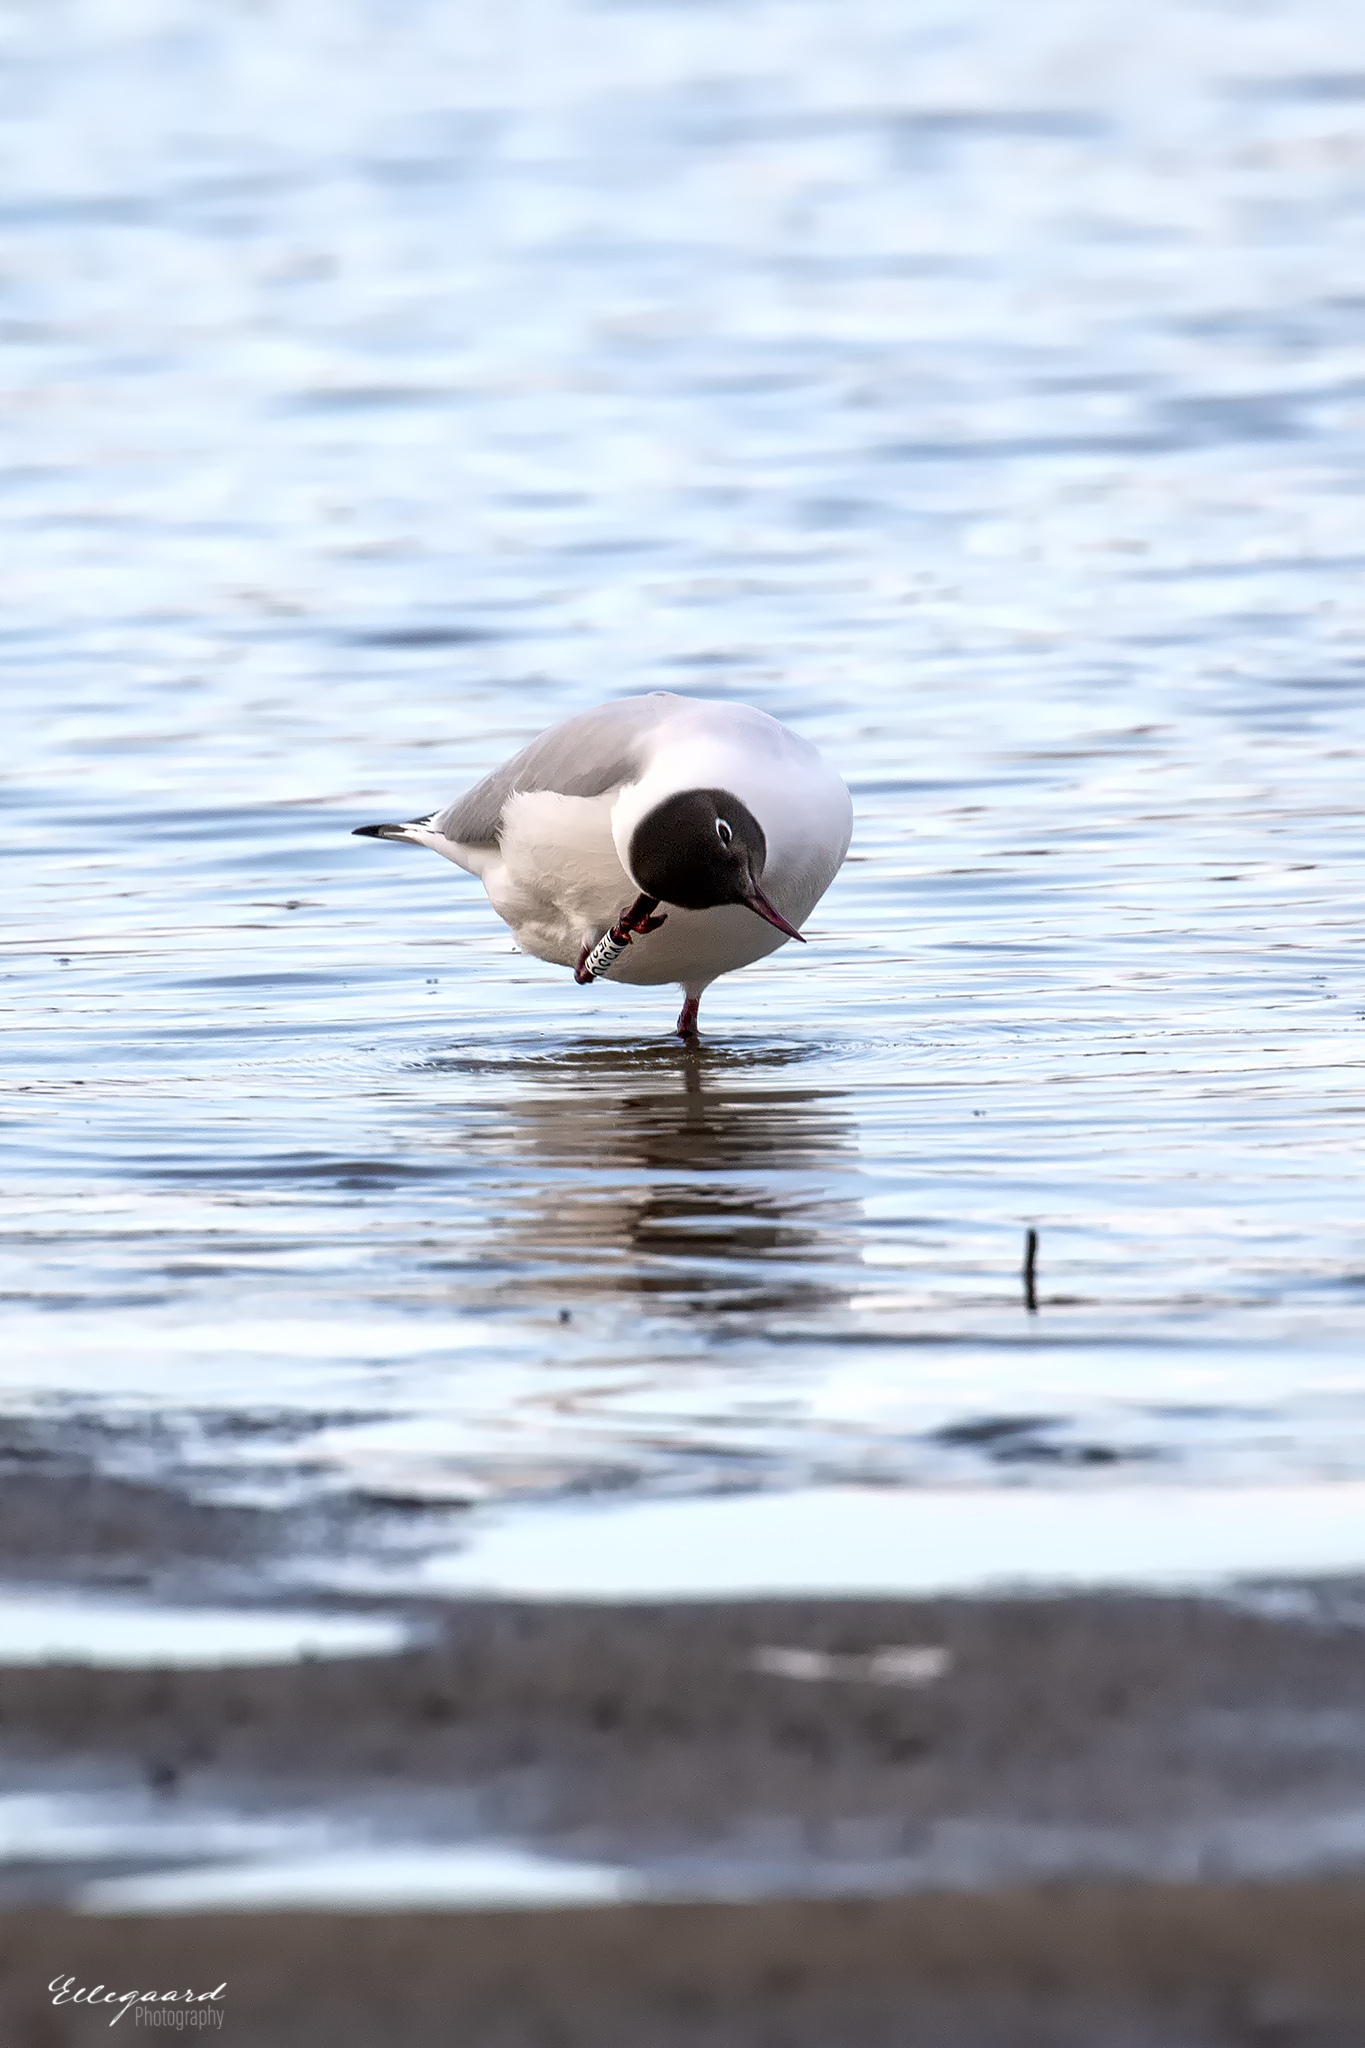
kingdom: Animalia
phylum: Chordata
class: Aves
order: Charadriiformes
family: Laridae
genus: Chroicocephalus
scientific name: Chroicocephalus ridibundus
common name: Black-headed gull
